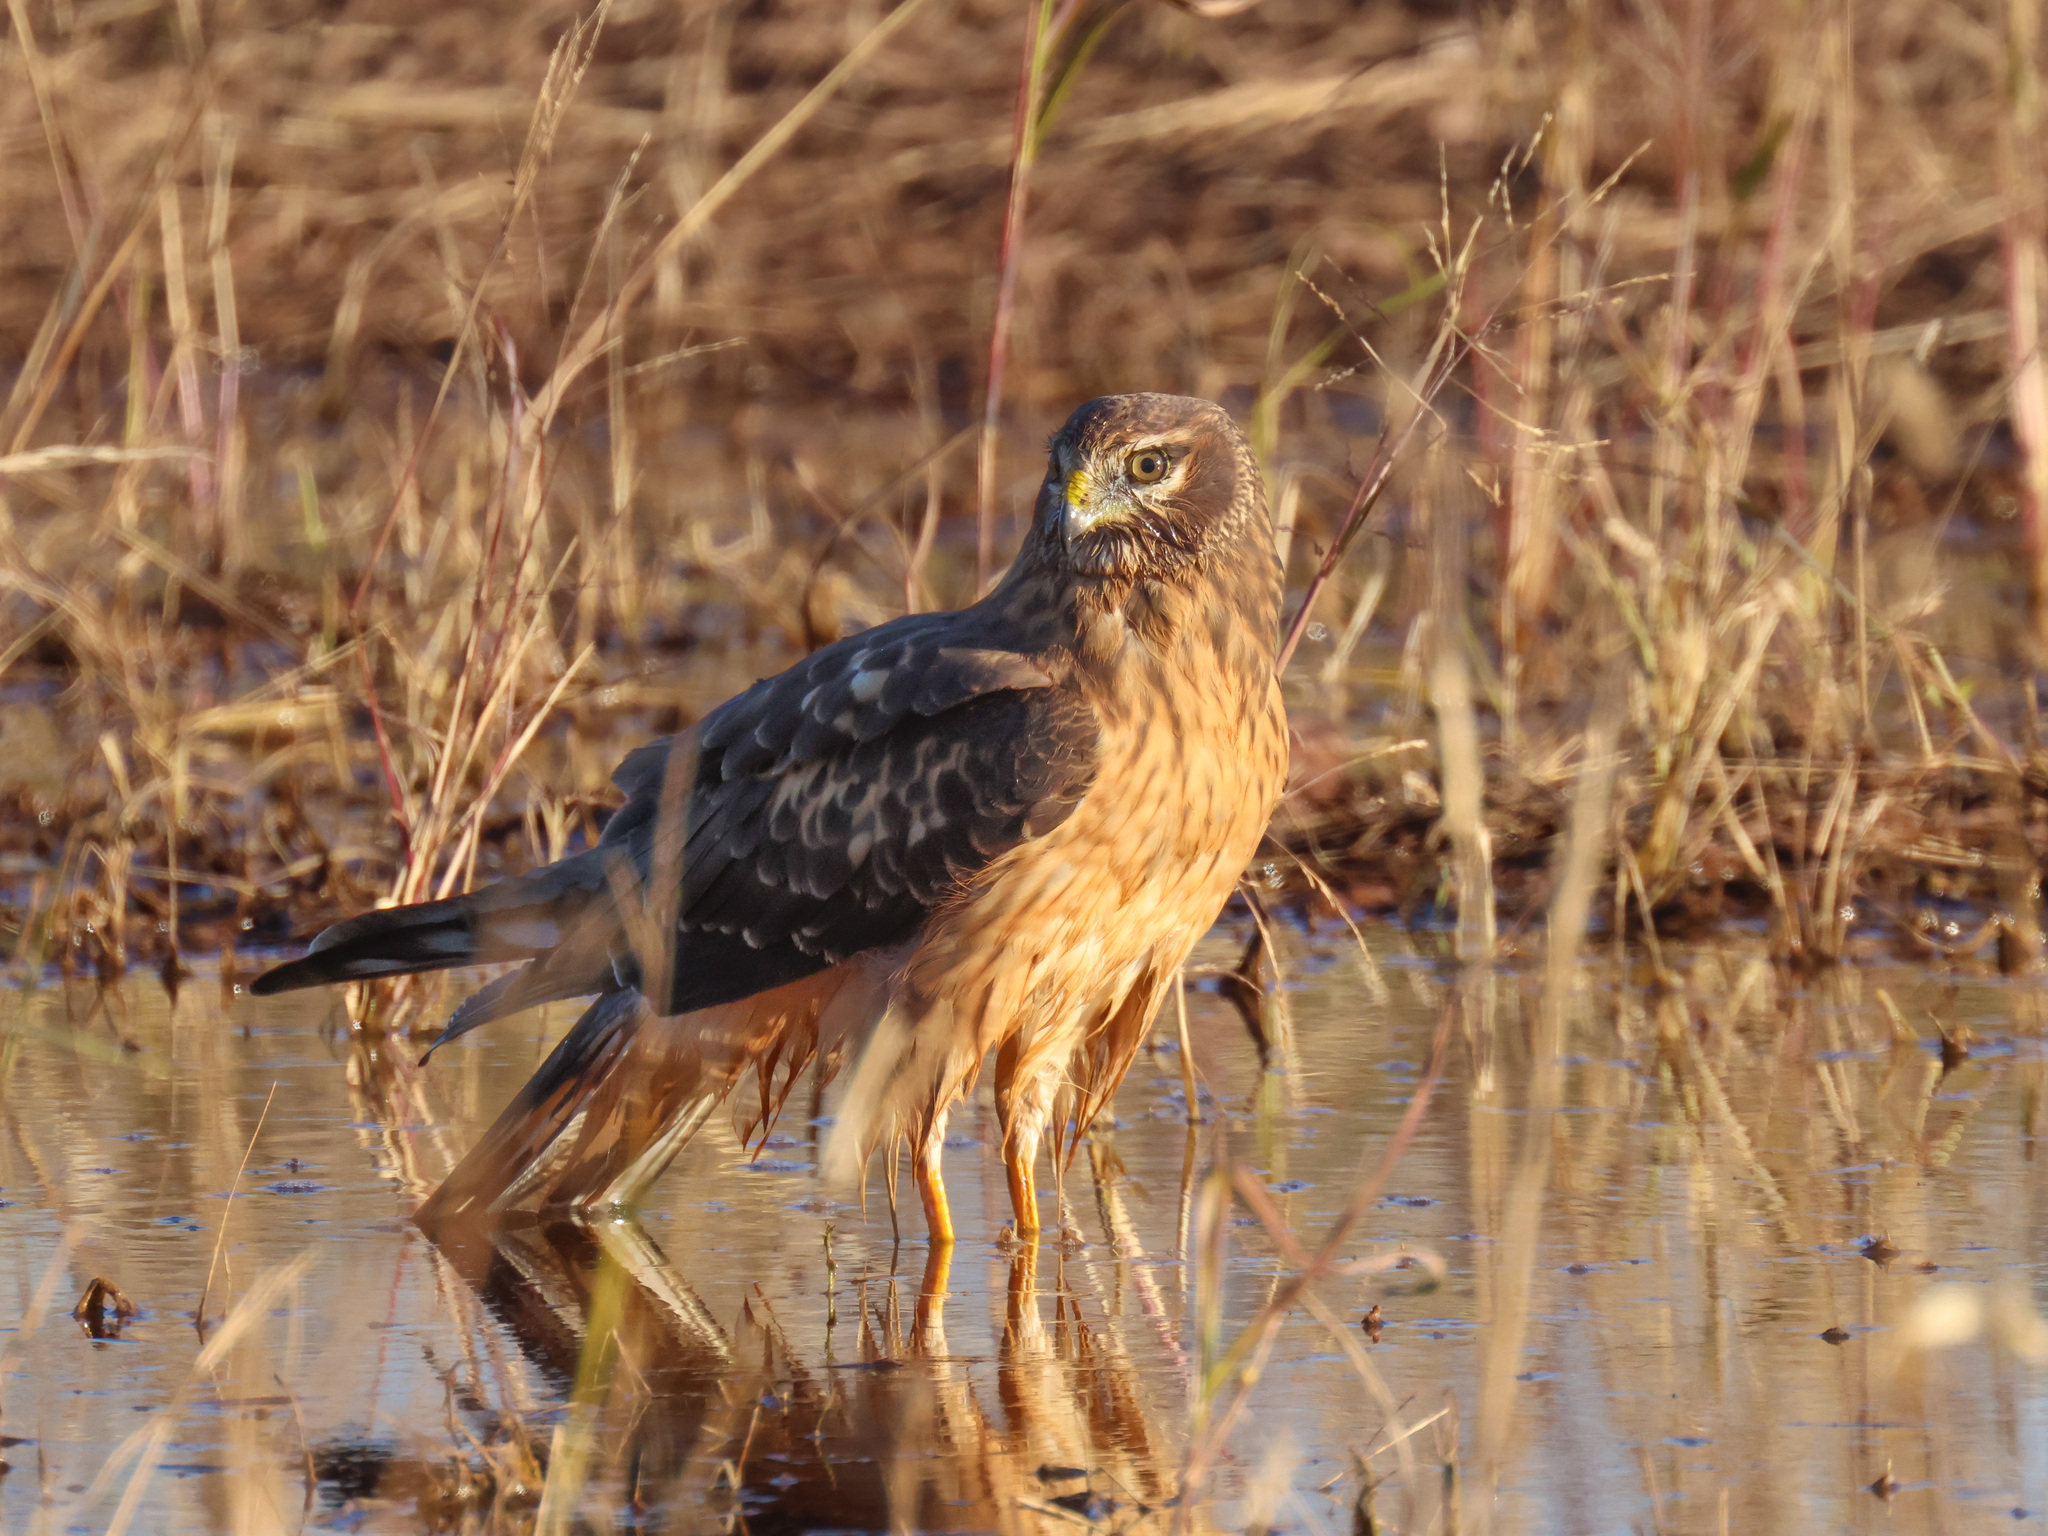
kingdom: Animalia
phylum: Chordata
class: Aves
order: Accipitriformes
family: Accipitridae
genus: Circus
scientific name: Circus cyaneus
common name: Hen harrier
